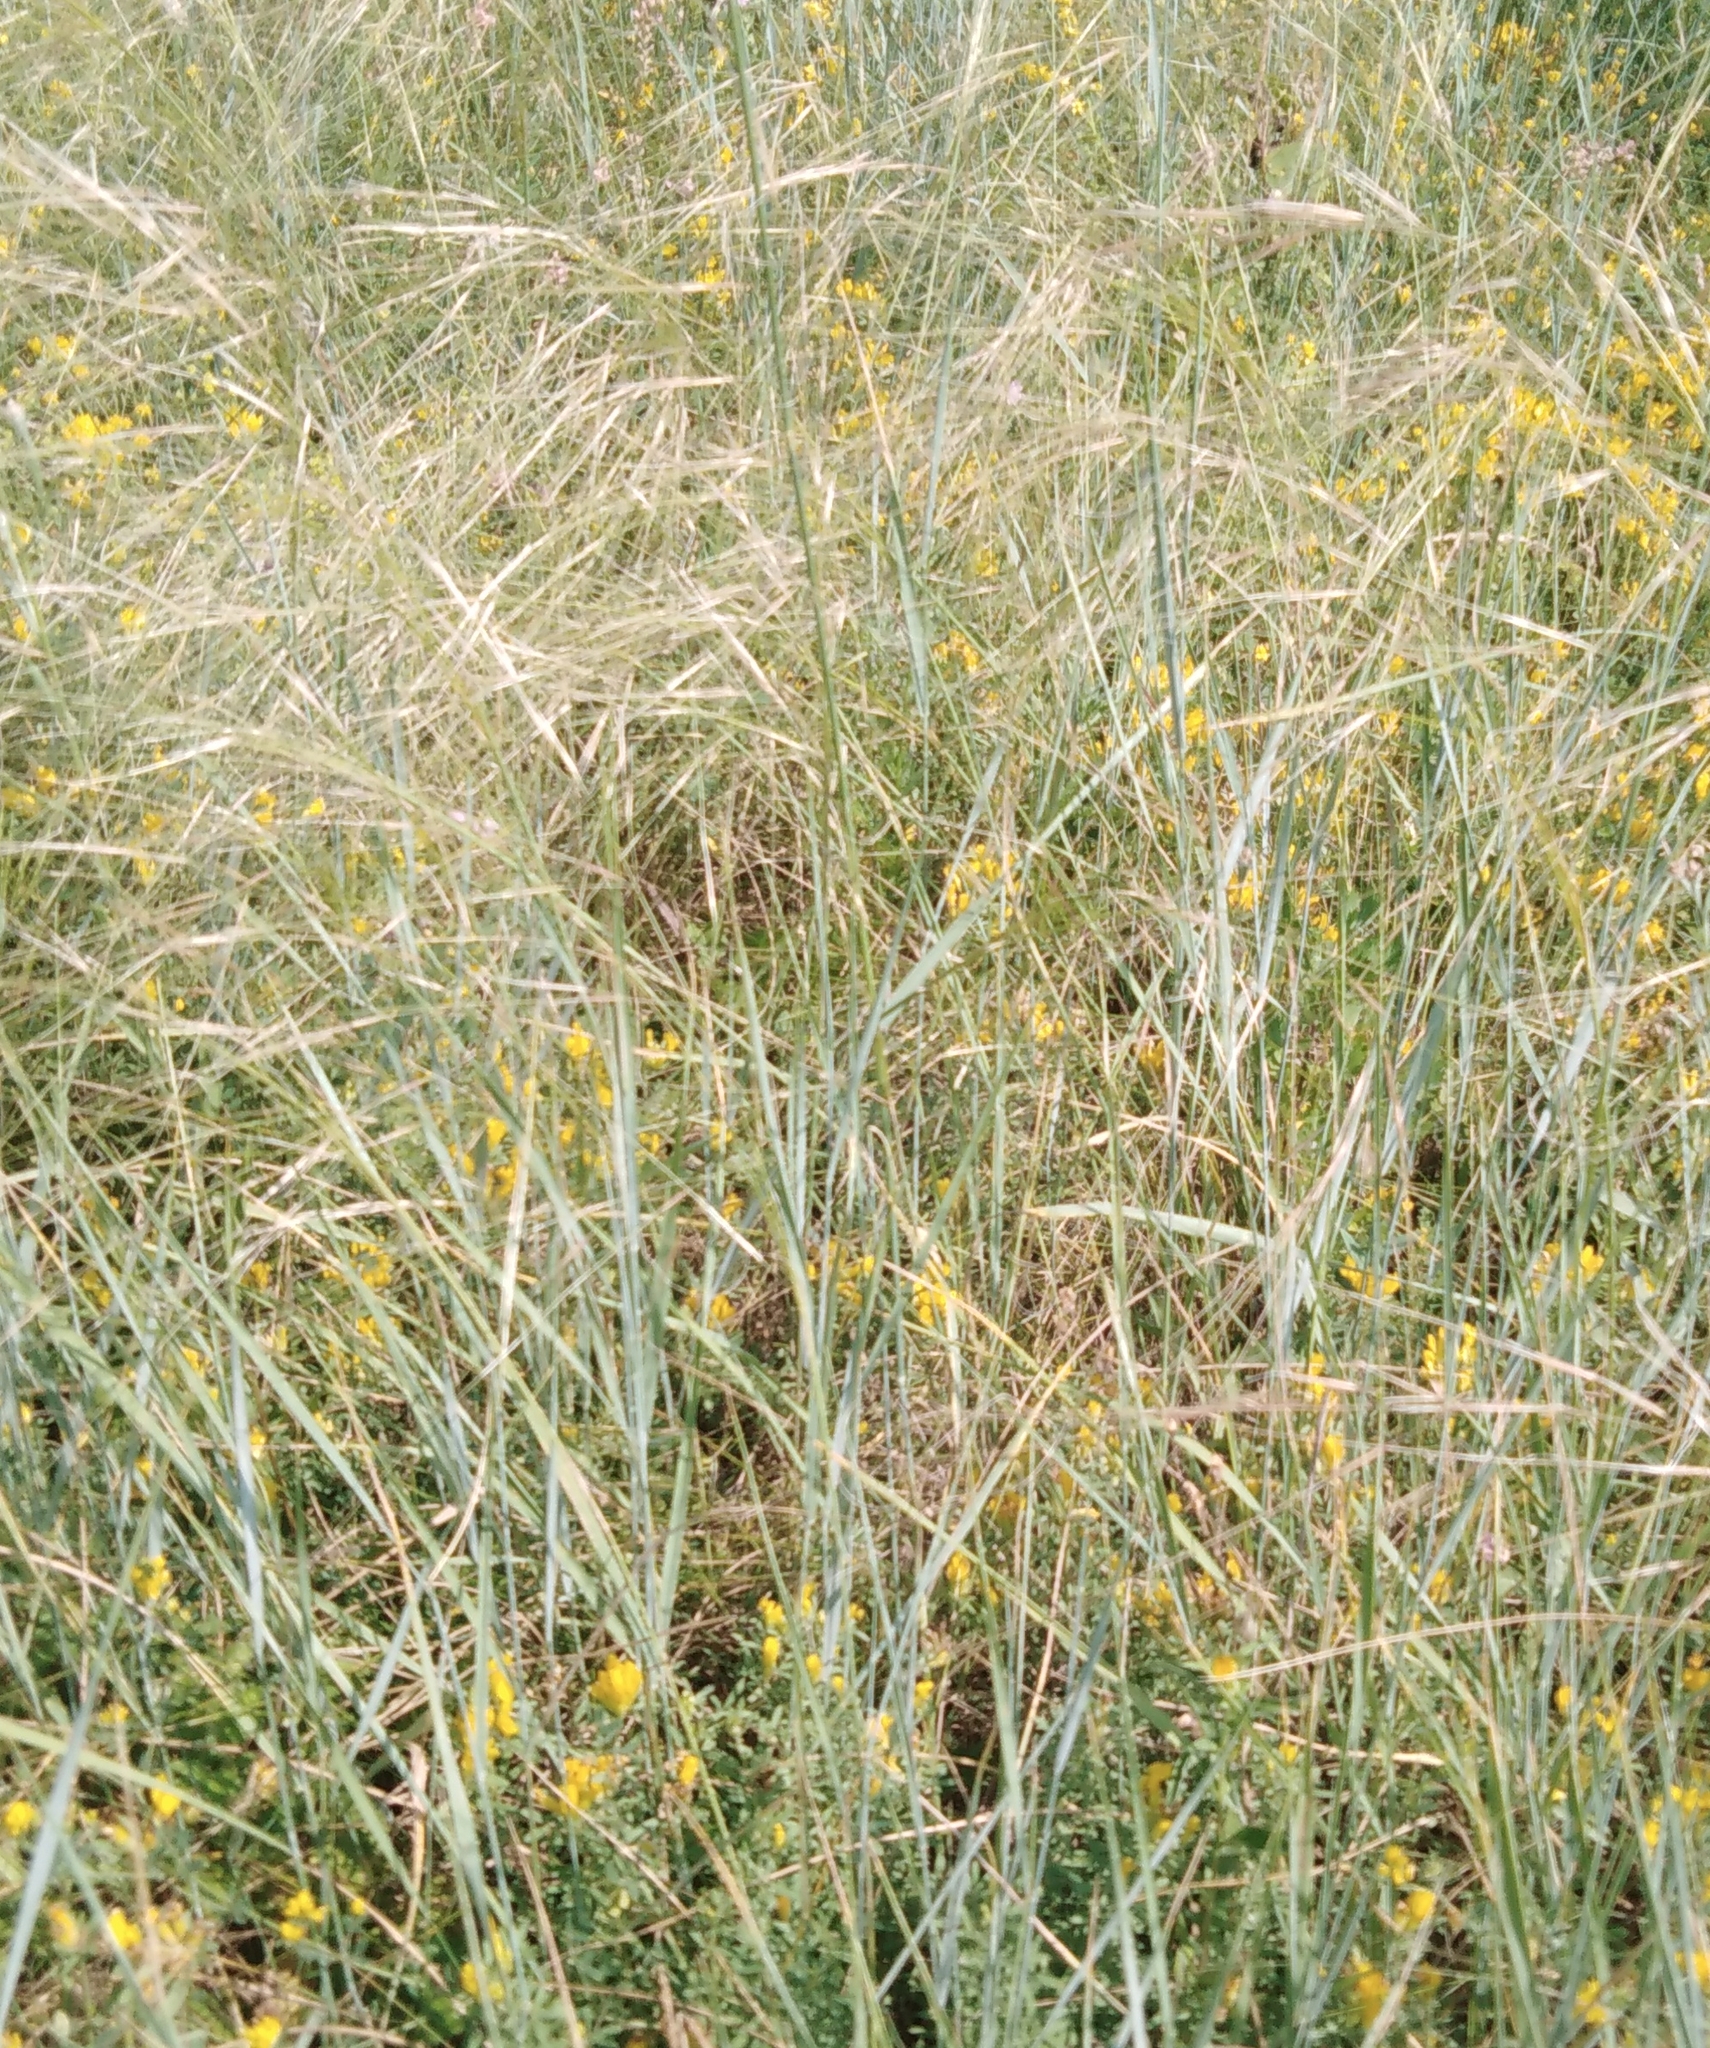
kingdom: Plantae
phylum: Tracheophyta
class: Liliopsida
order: Poales
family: Poaceae
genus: Stipa
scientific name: Stipa capillata
